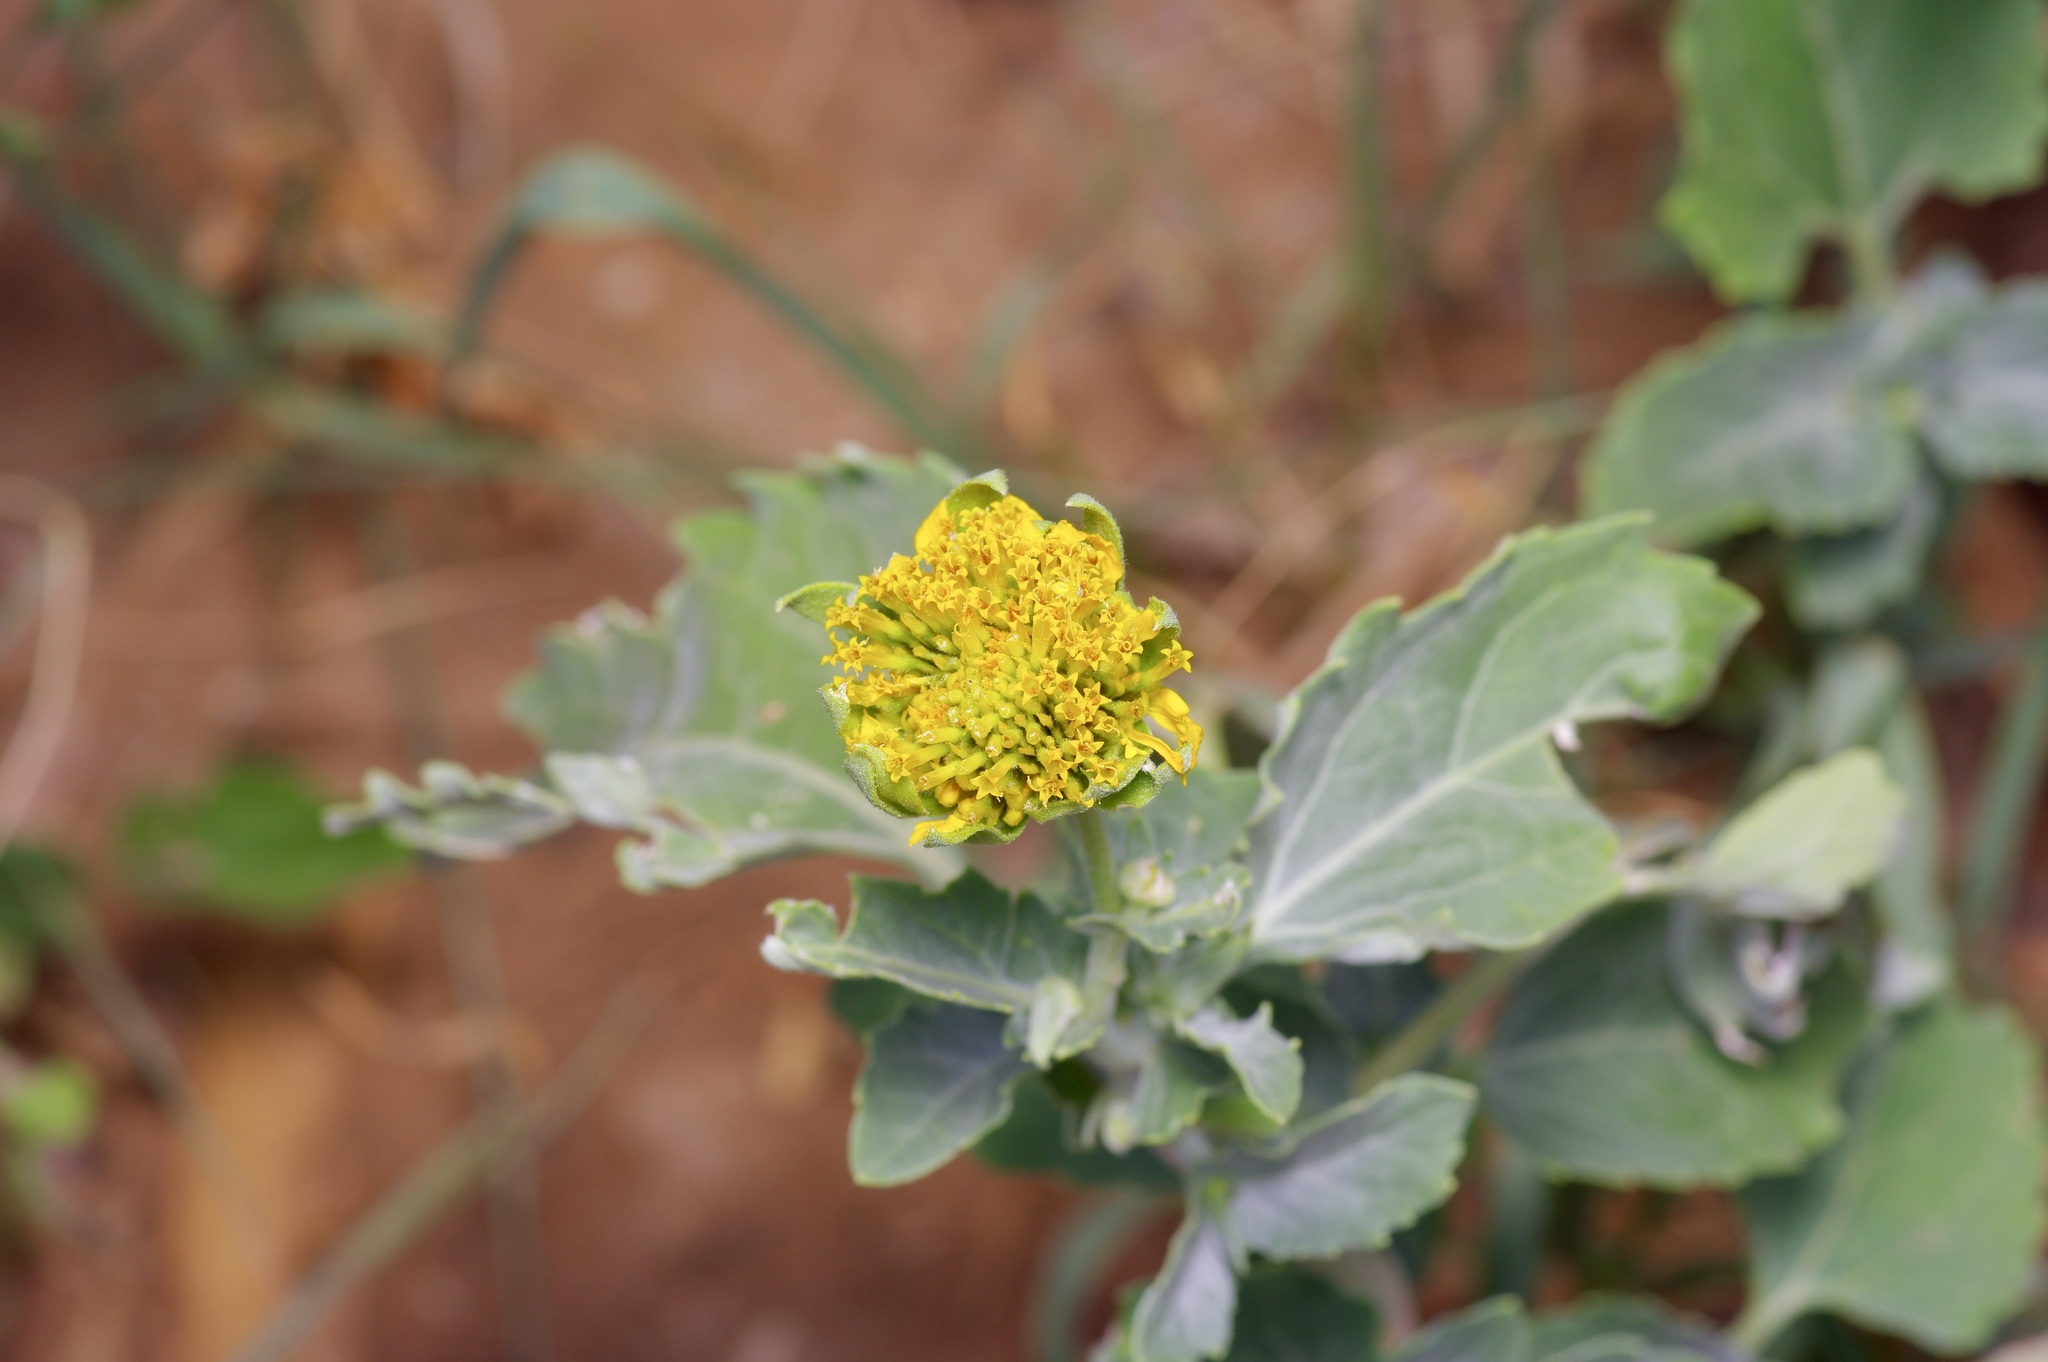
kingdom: Plantae
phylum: Tracheophyta
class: Magnoliopsida
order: Asterales
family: Asteraceae
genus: Verbesina
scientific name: Verbesina encelioides
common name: Golden crownbeard
